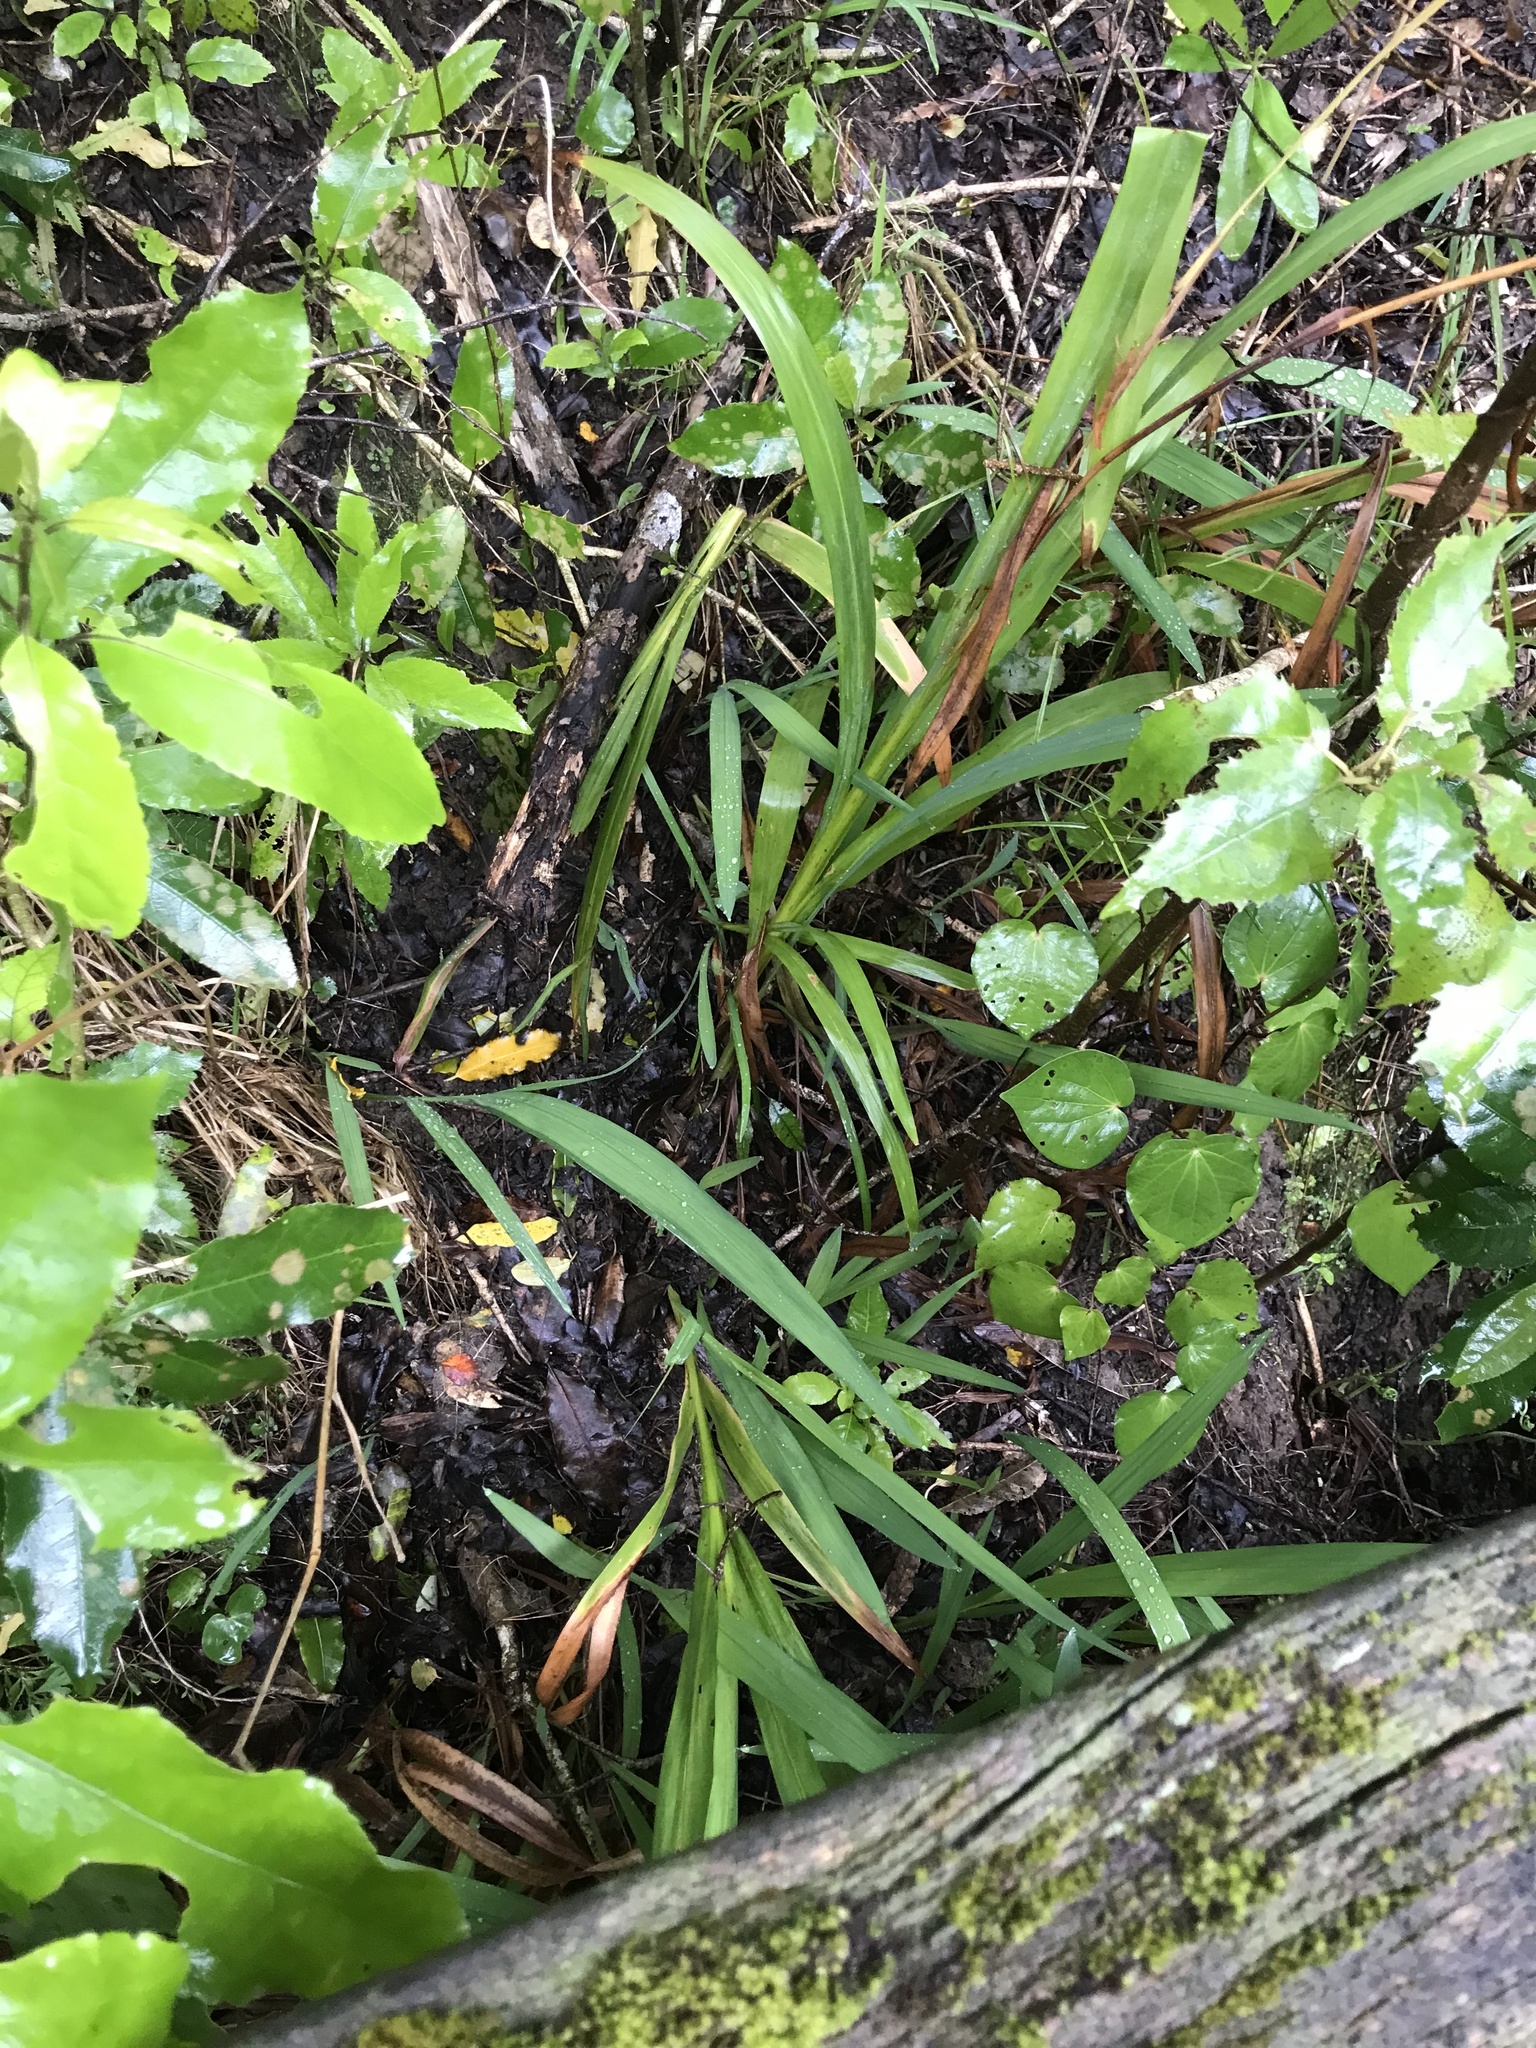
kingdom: Plantae
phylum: Tracheophyta
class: Liliopsida
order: Asparagales
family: Iridaceae
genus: Crocosmia
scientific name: Crocosmia crocosmiiflora
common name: Montbretia
